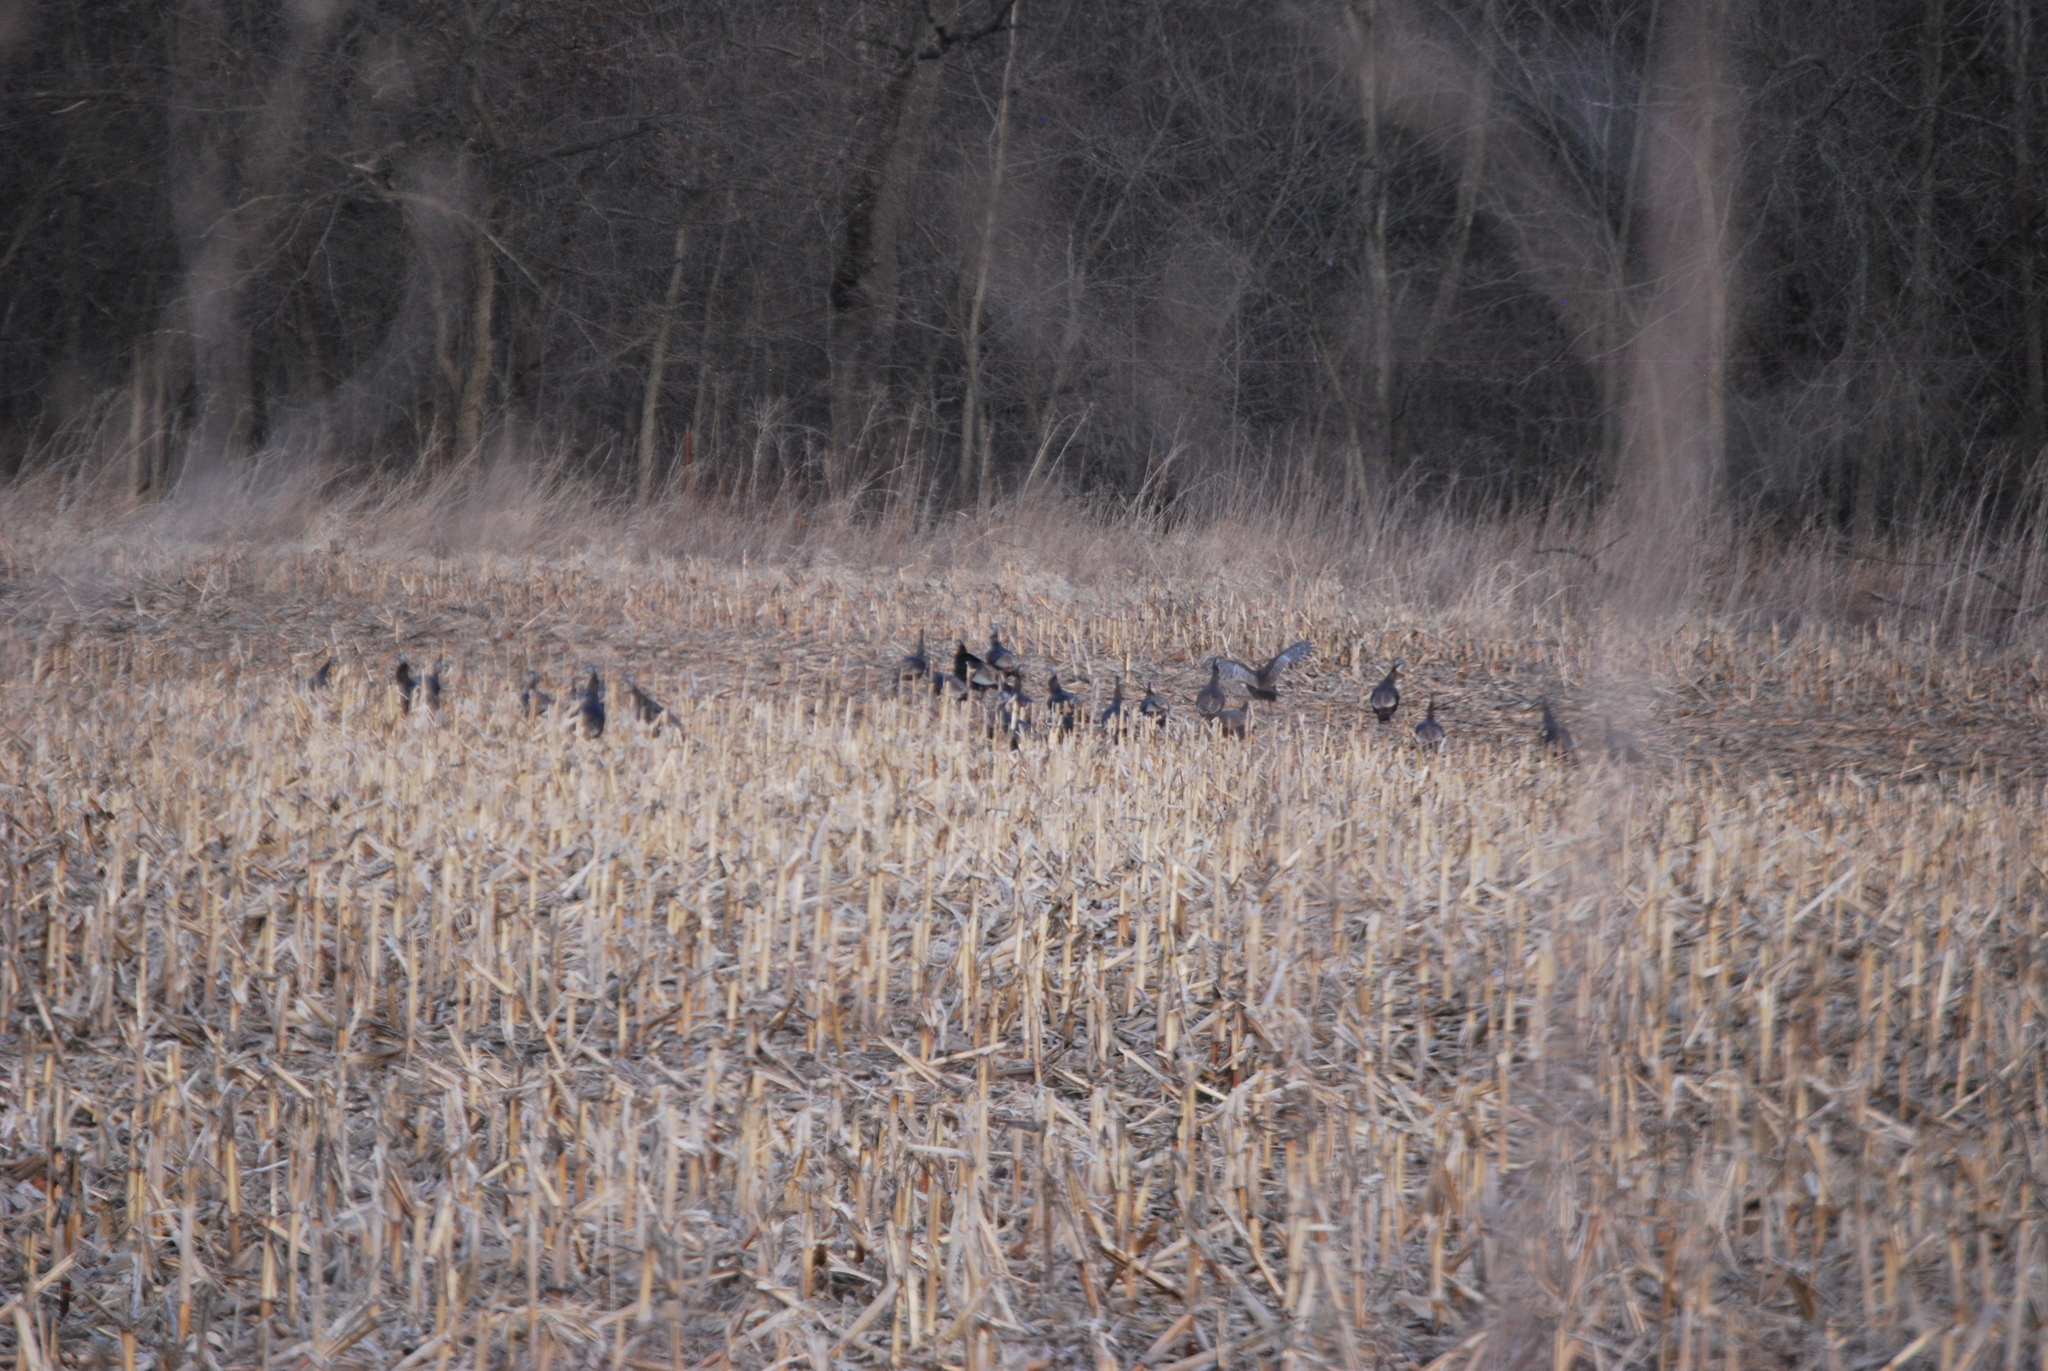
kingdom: Animalia
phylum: Chordata
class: Aves
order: Galliformes
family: Phasianidae
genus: Meleagris
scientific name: Meleagris gallopavo
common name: Wild turkey
